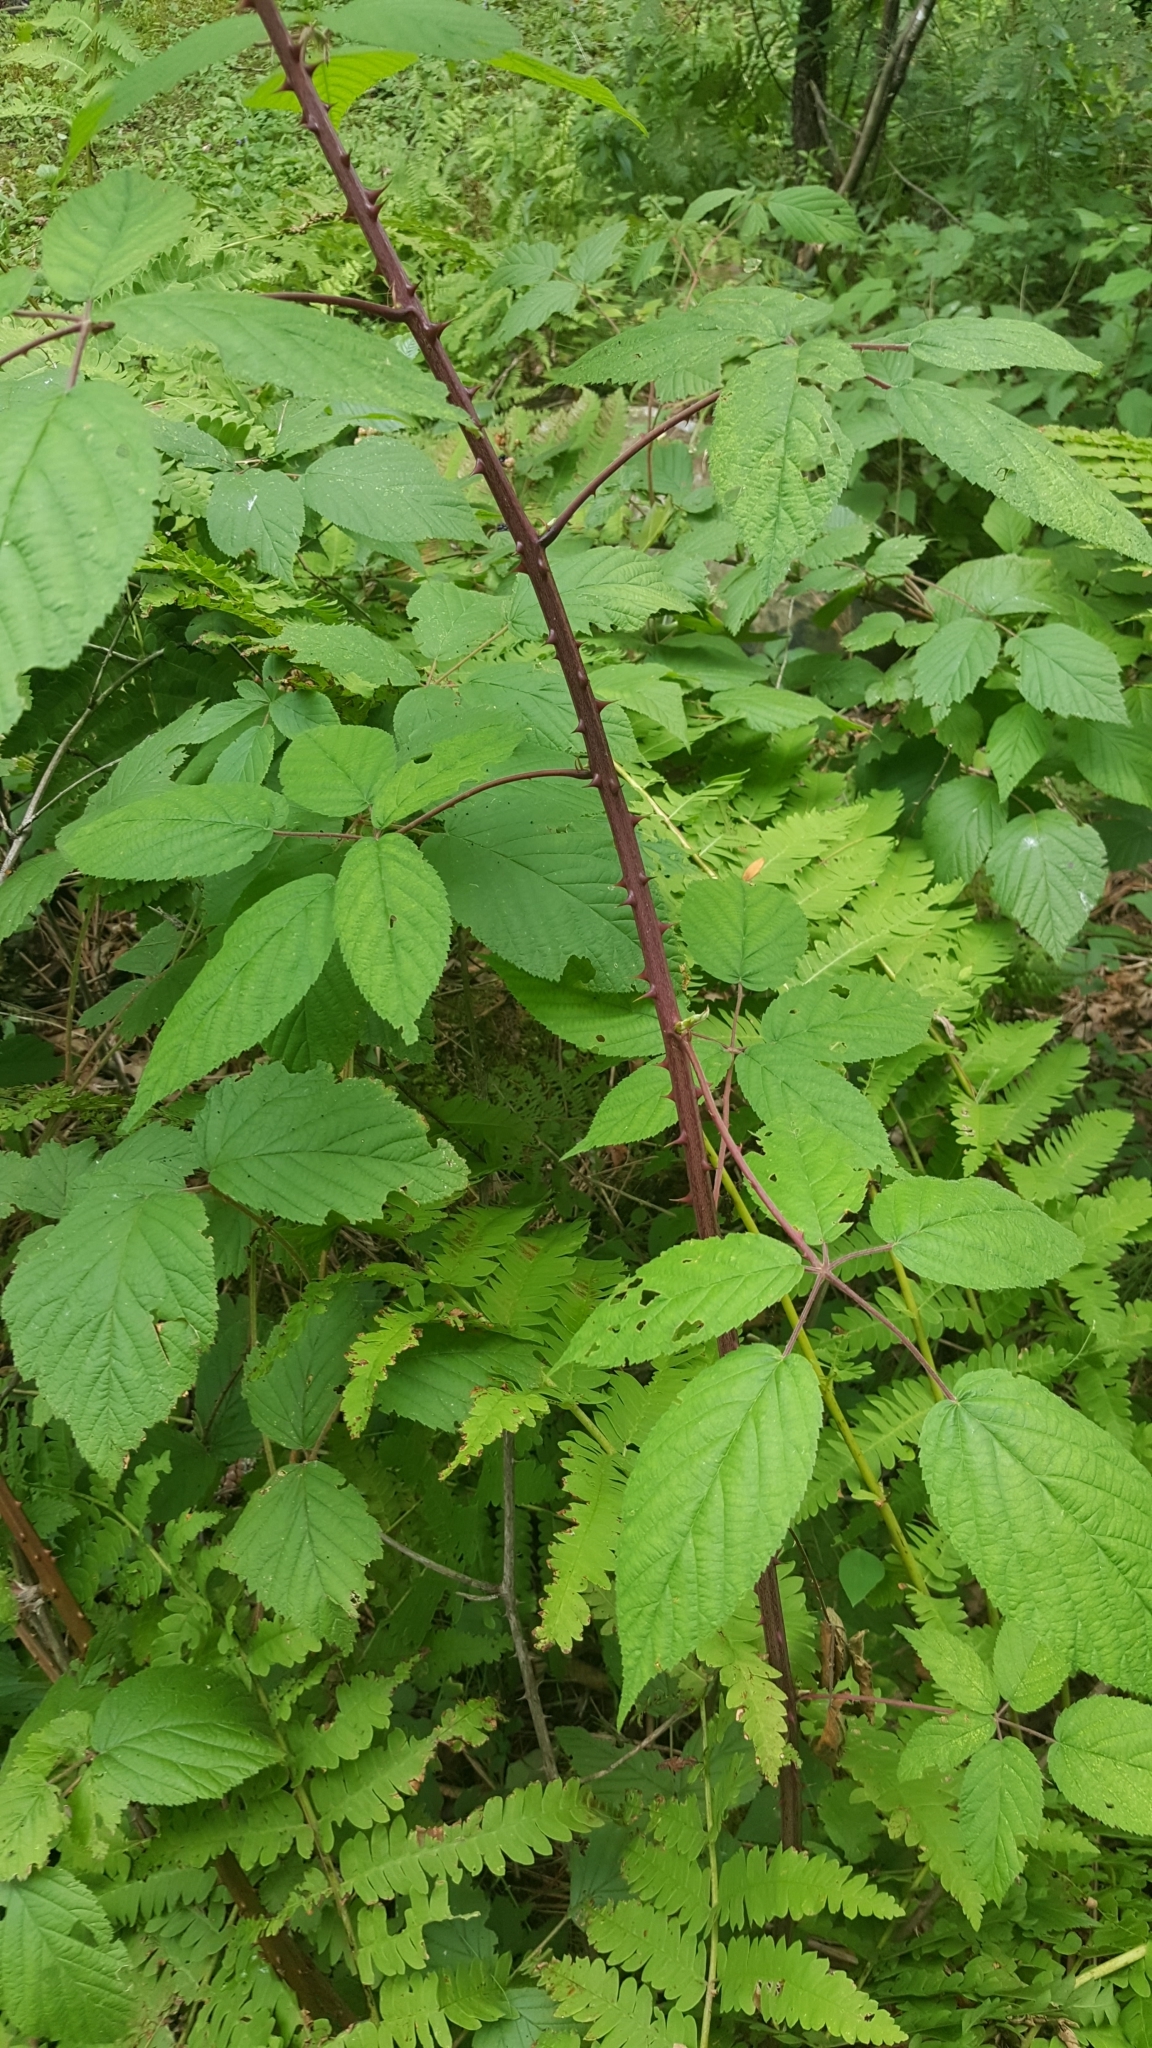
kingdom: Plantae
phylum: Tracheophyta
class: Magnoliopsida
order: Rosales
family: Rosaceae
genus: Rubus
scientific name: Rubus allegheniensis
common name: Allegheny blackberry
